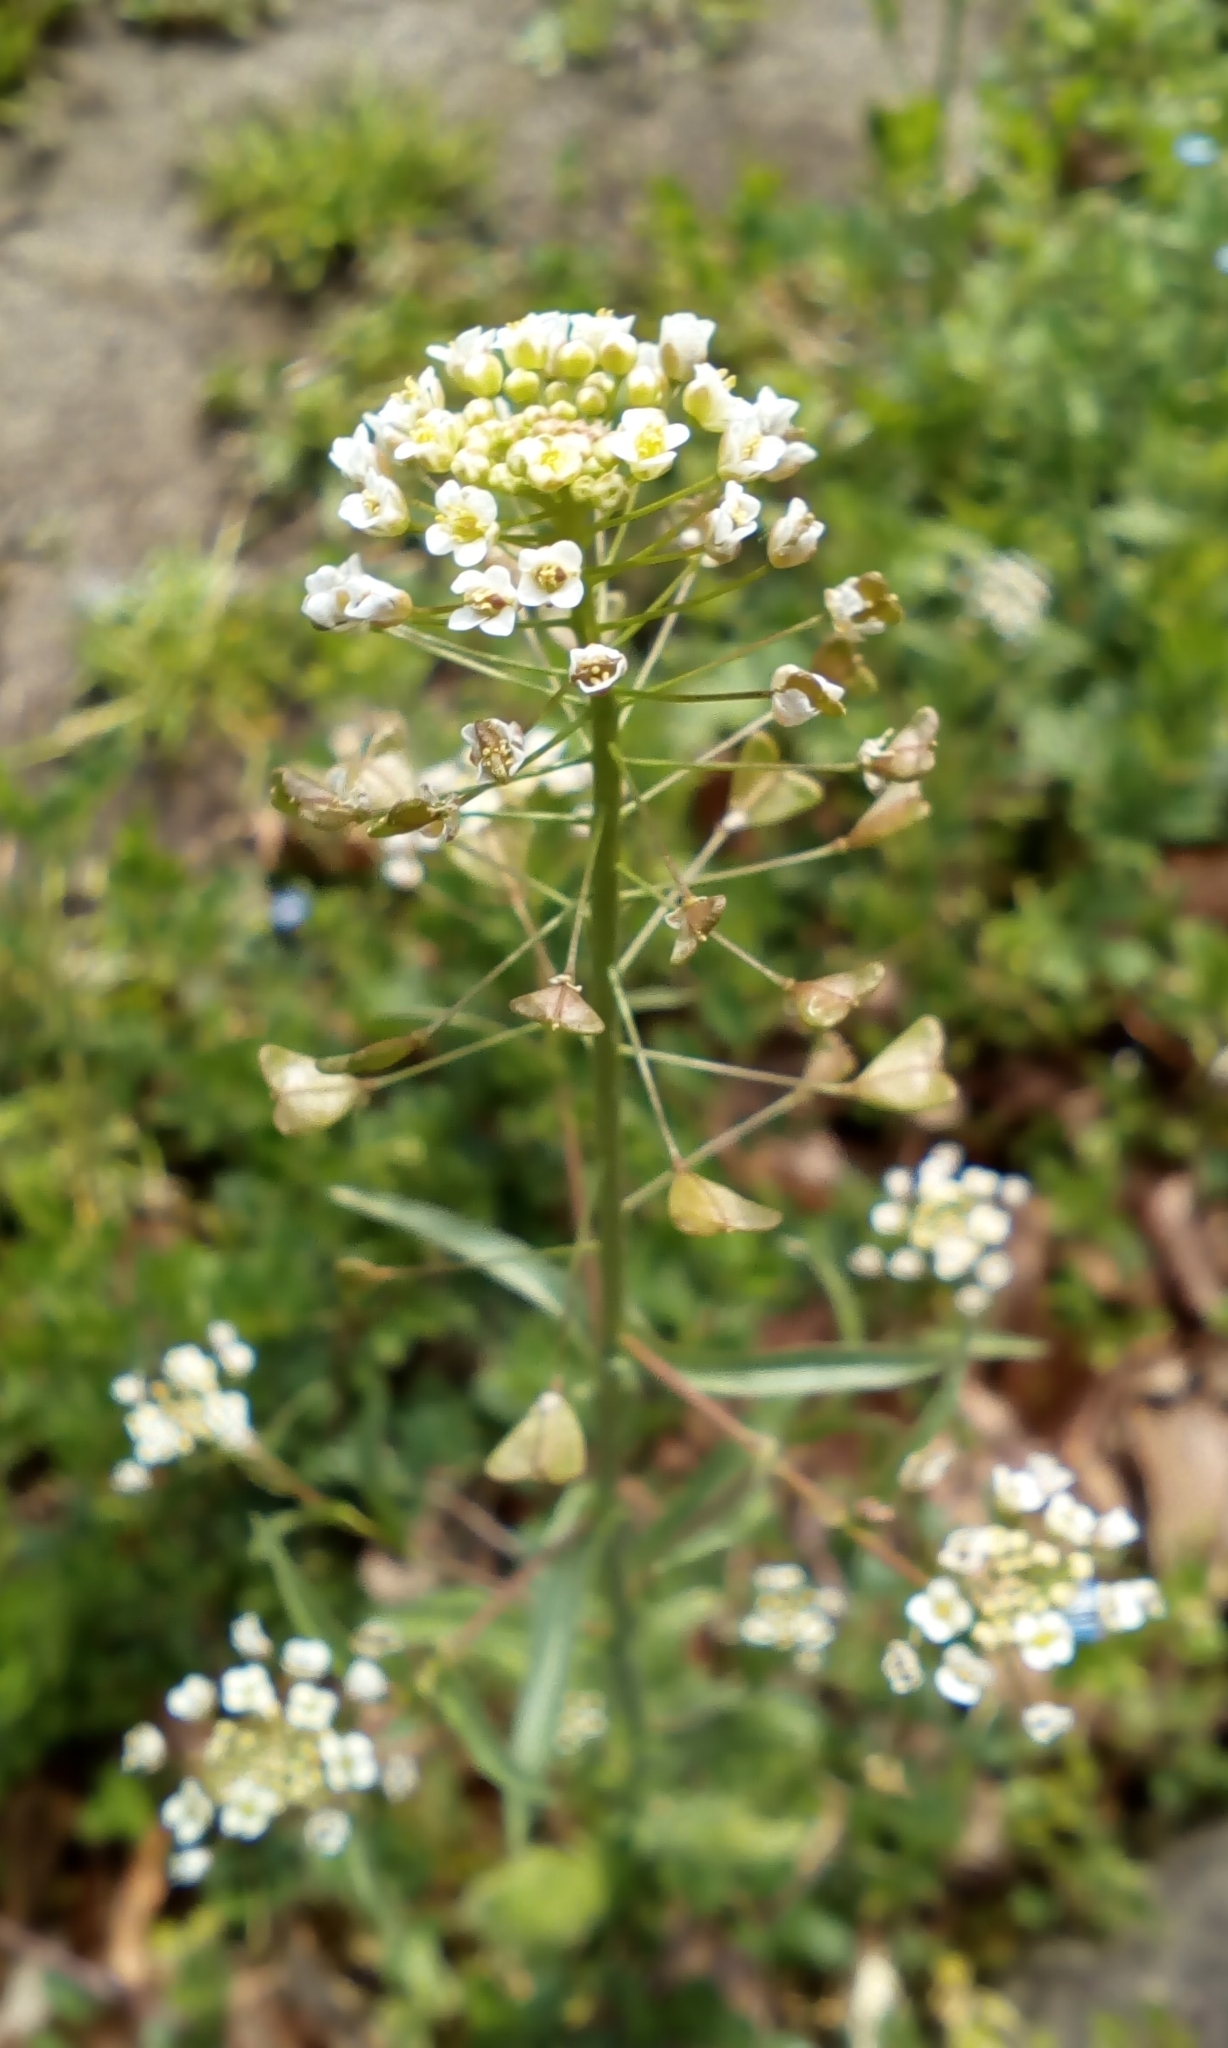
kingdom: Plantae
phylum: Tracheophyta
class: Magnoliopsida
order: Brassicales
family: Brassicaceae
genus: Capsella
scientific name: Capsella bursa-pastoris
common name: Shepherd's purse
